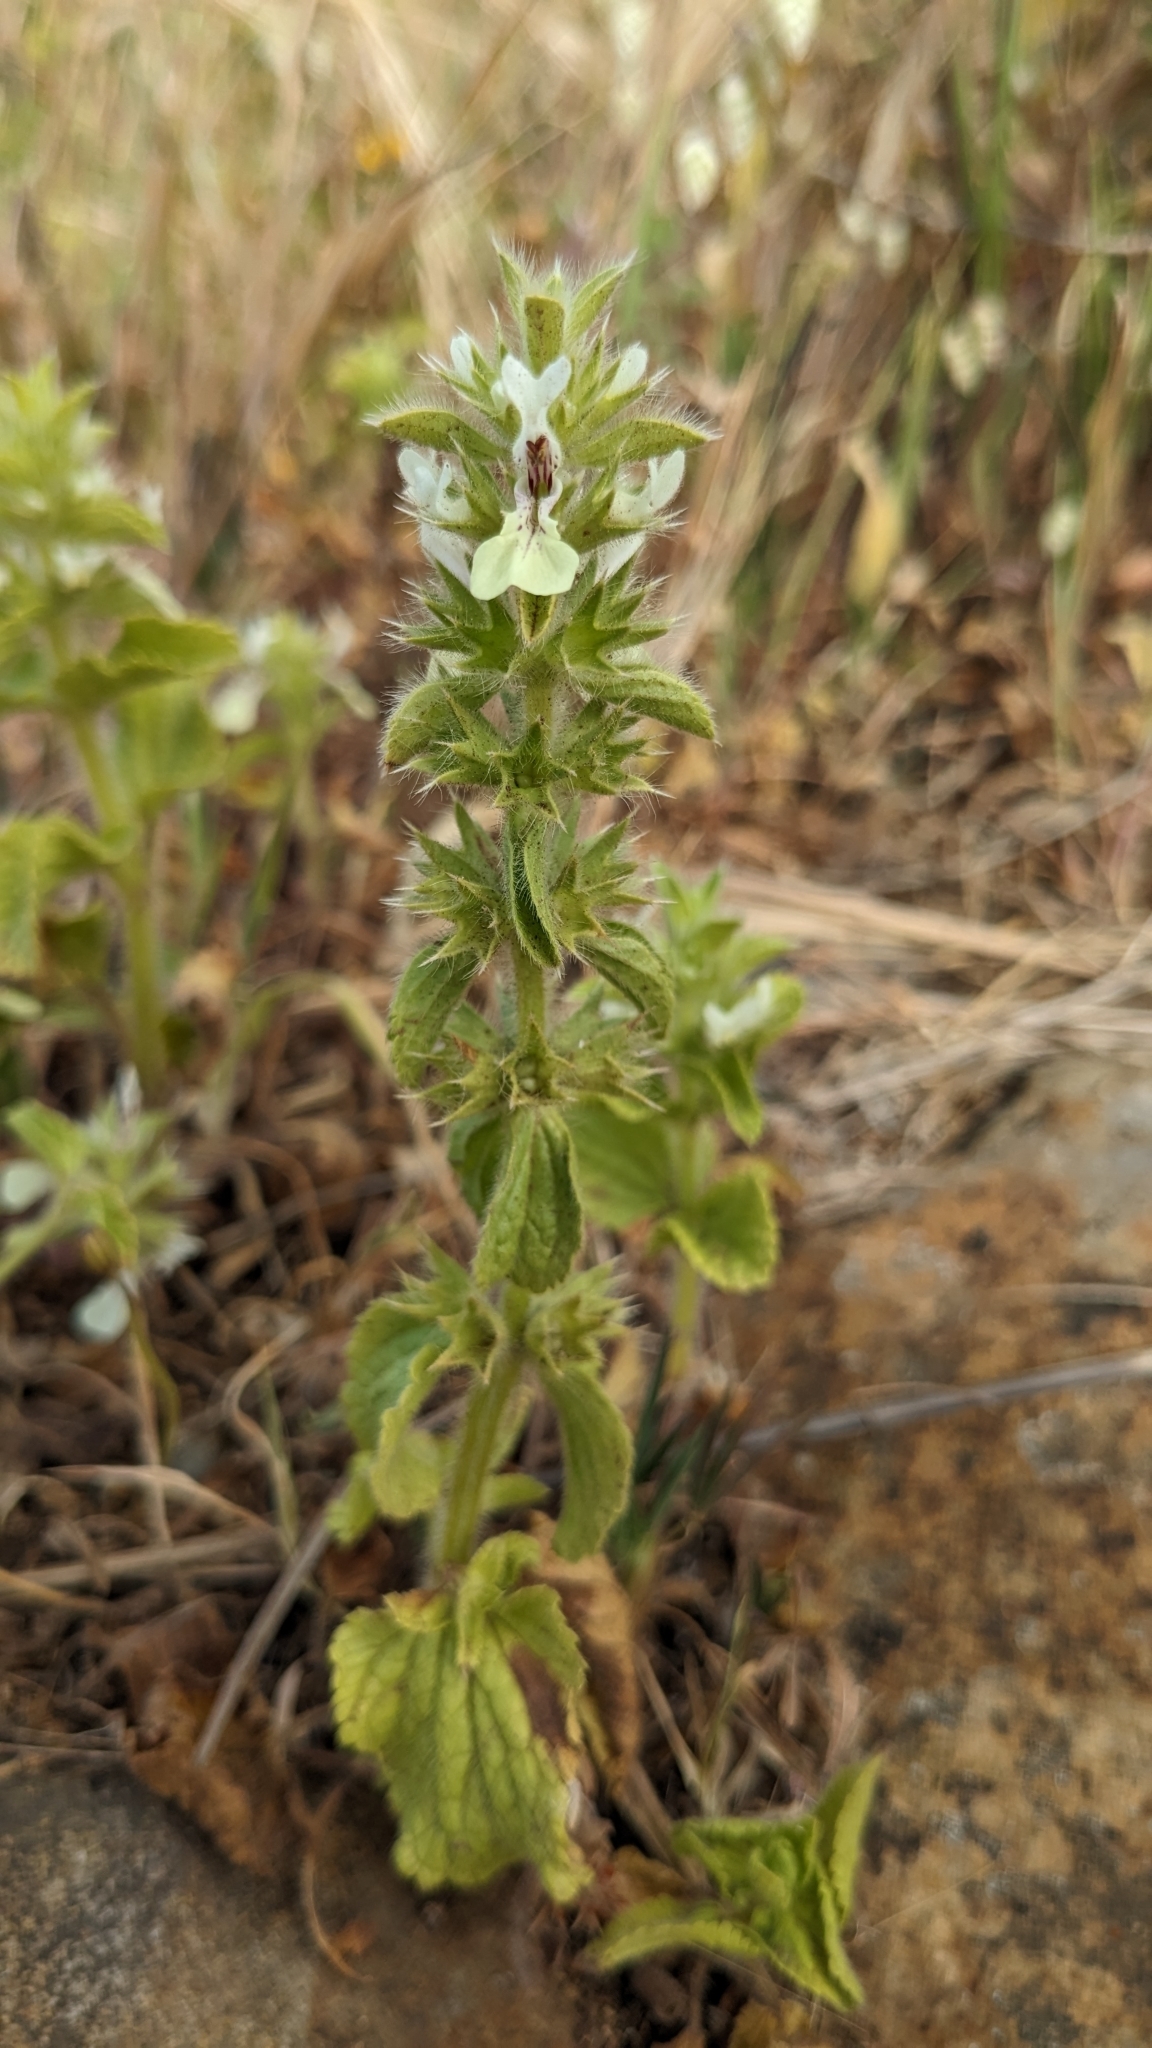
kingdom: Plantae
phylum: Tracheophyta
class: Magnoliopsida
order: Lamiales
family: Lamiaceae
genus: Stachys
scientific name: Stachys ocymastrum
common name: Italian hedgenettle
